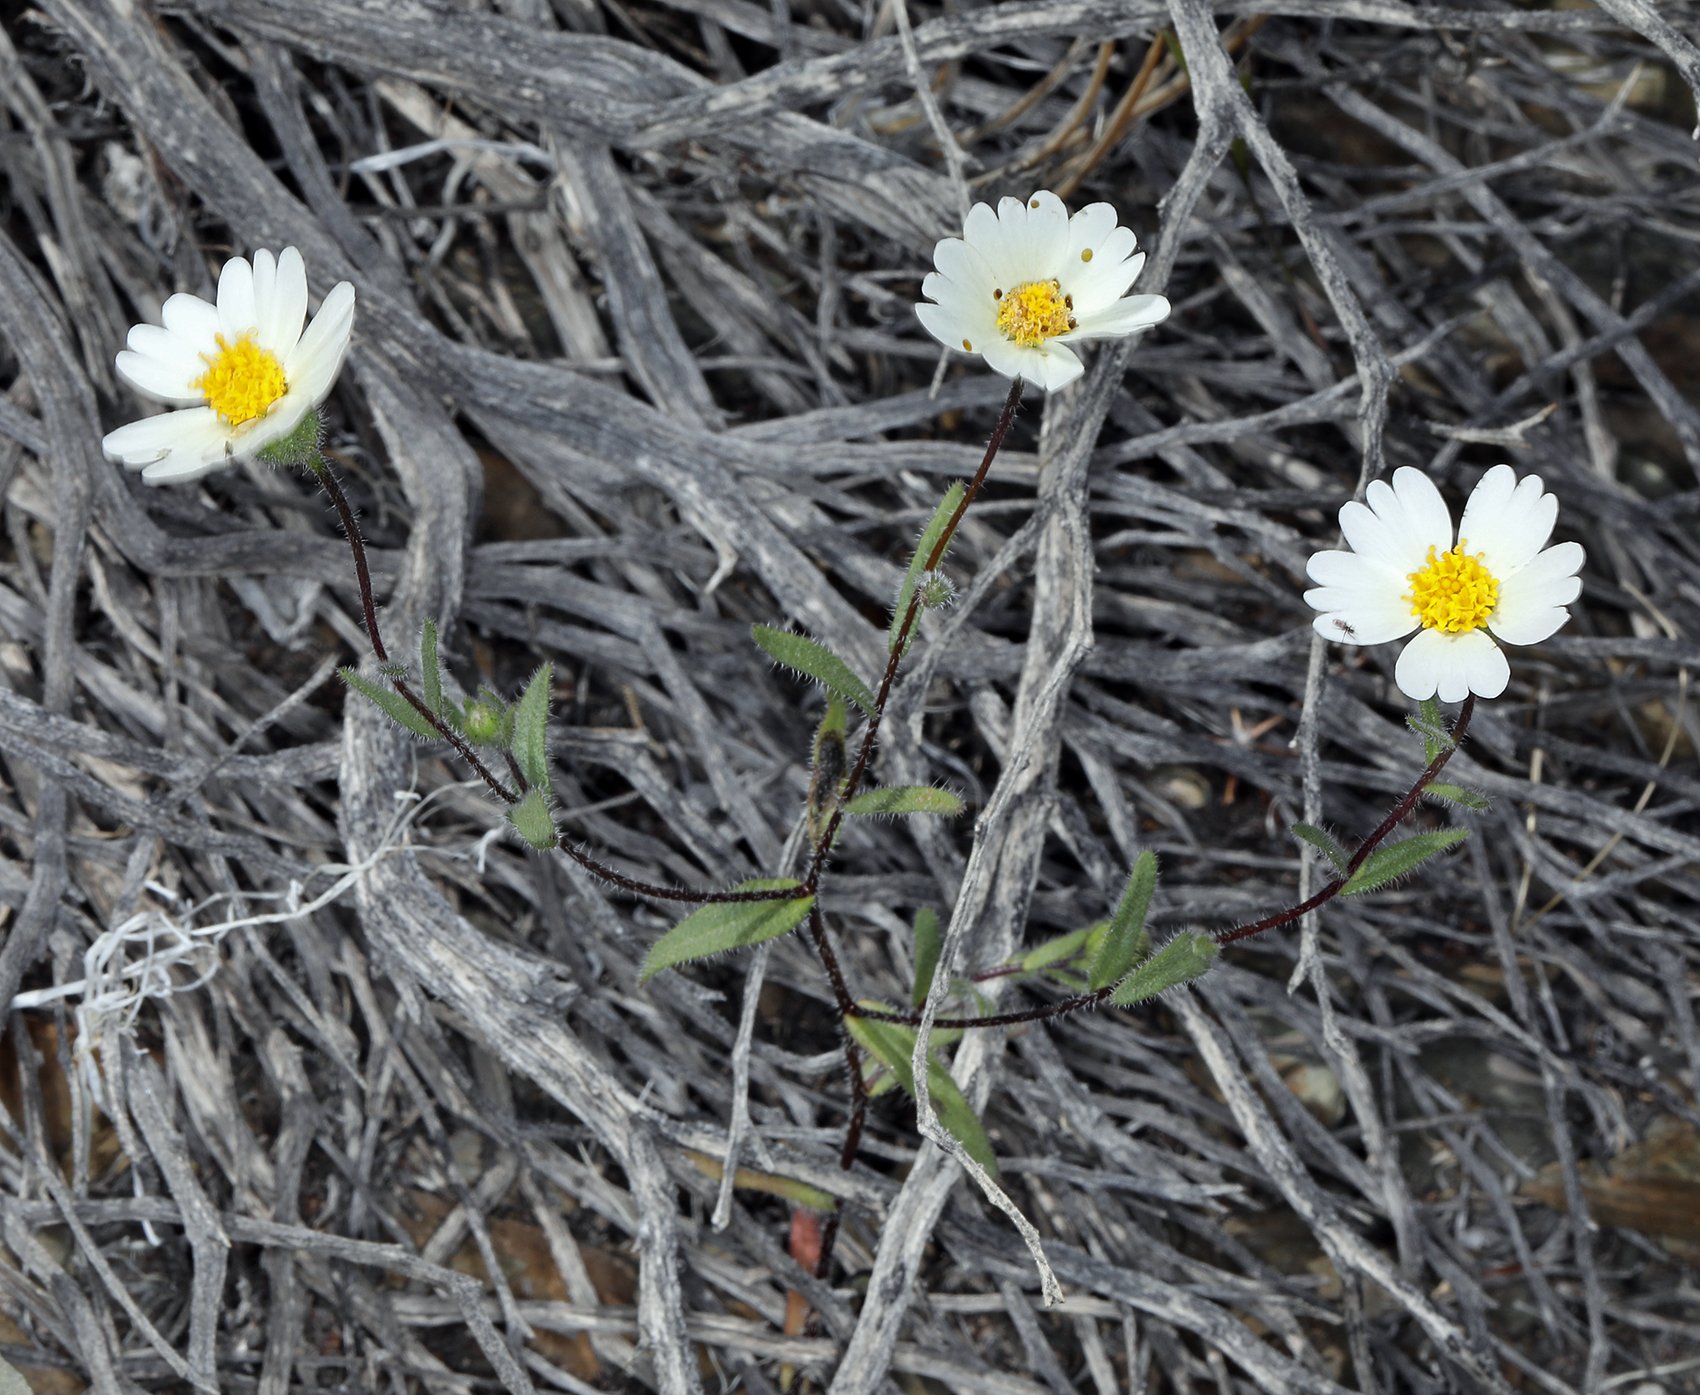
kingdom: Plantae
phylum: Tracheophyta
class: Magnoliopsida
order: Asterales
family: Asteraceae
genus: Layia
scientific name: Layia glandulosa
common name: White layia
